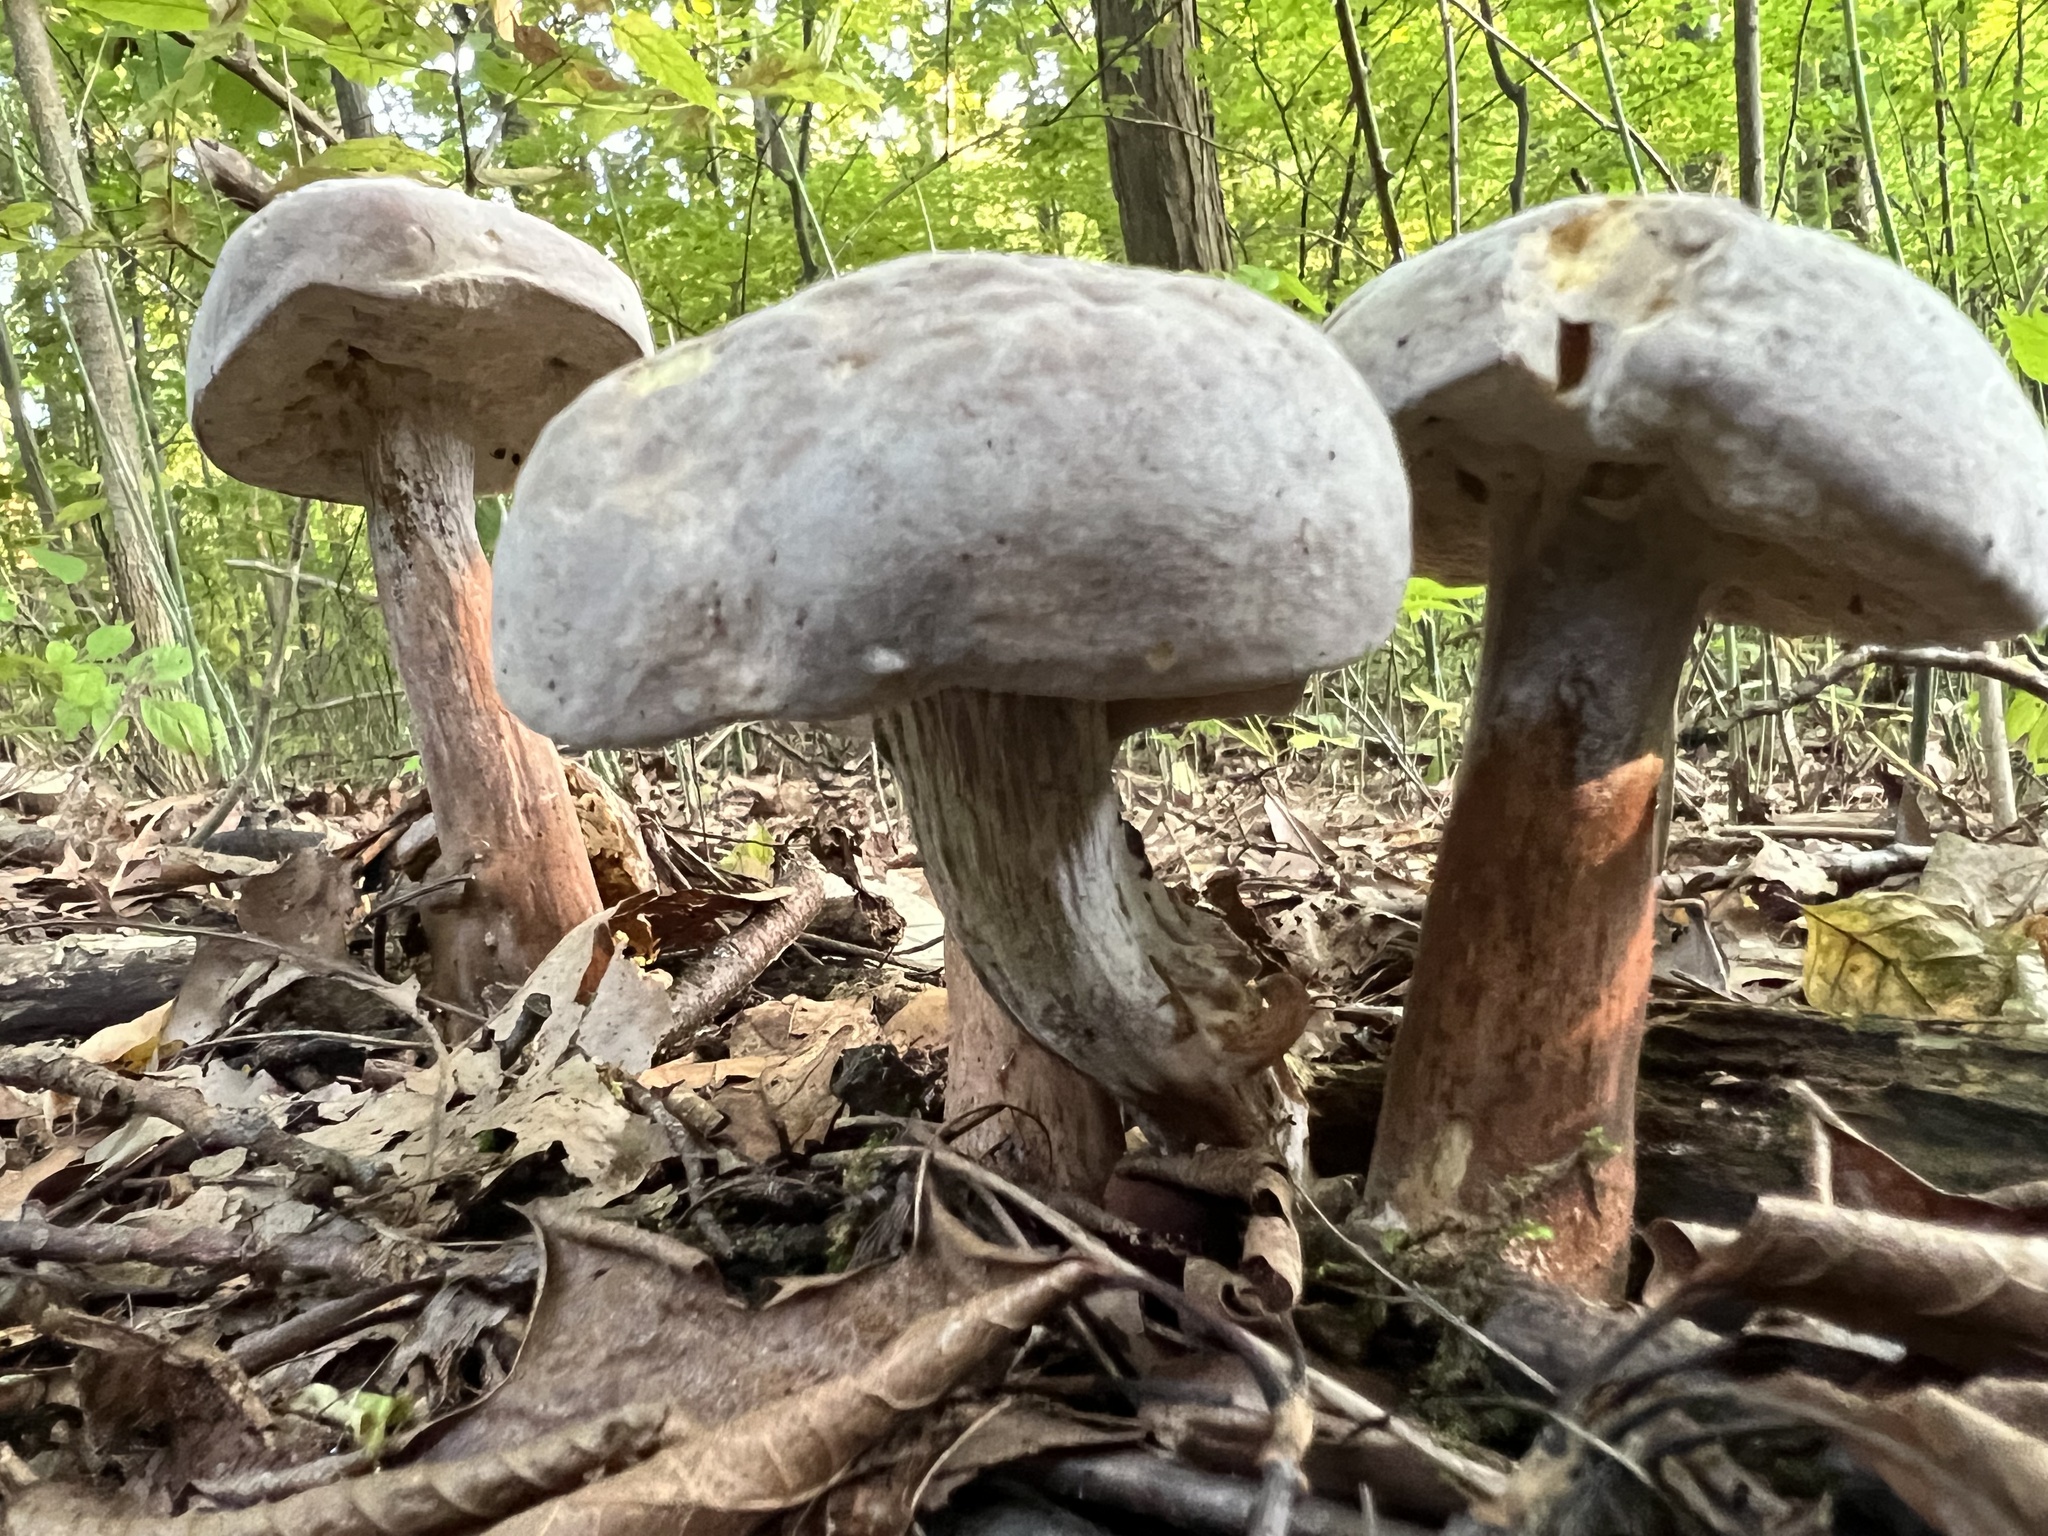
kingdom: Fungi
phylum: Ascomycota
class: Sordariomycetes
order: Hypocreales
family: Hypocreaceae
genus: Hypomyces
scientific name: Hypomyces melanocarpus
